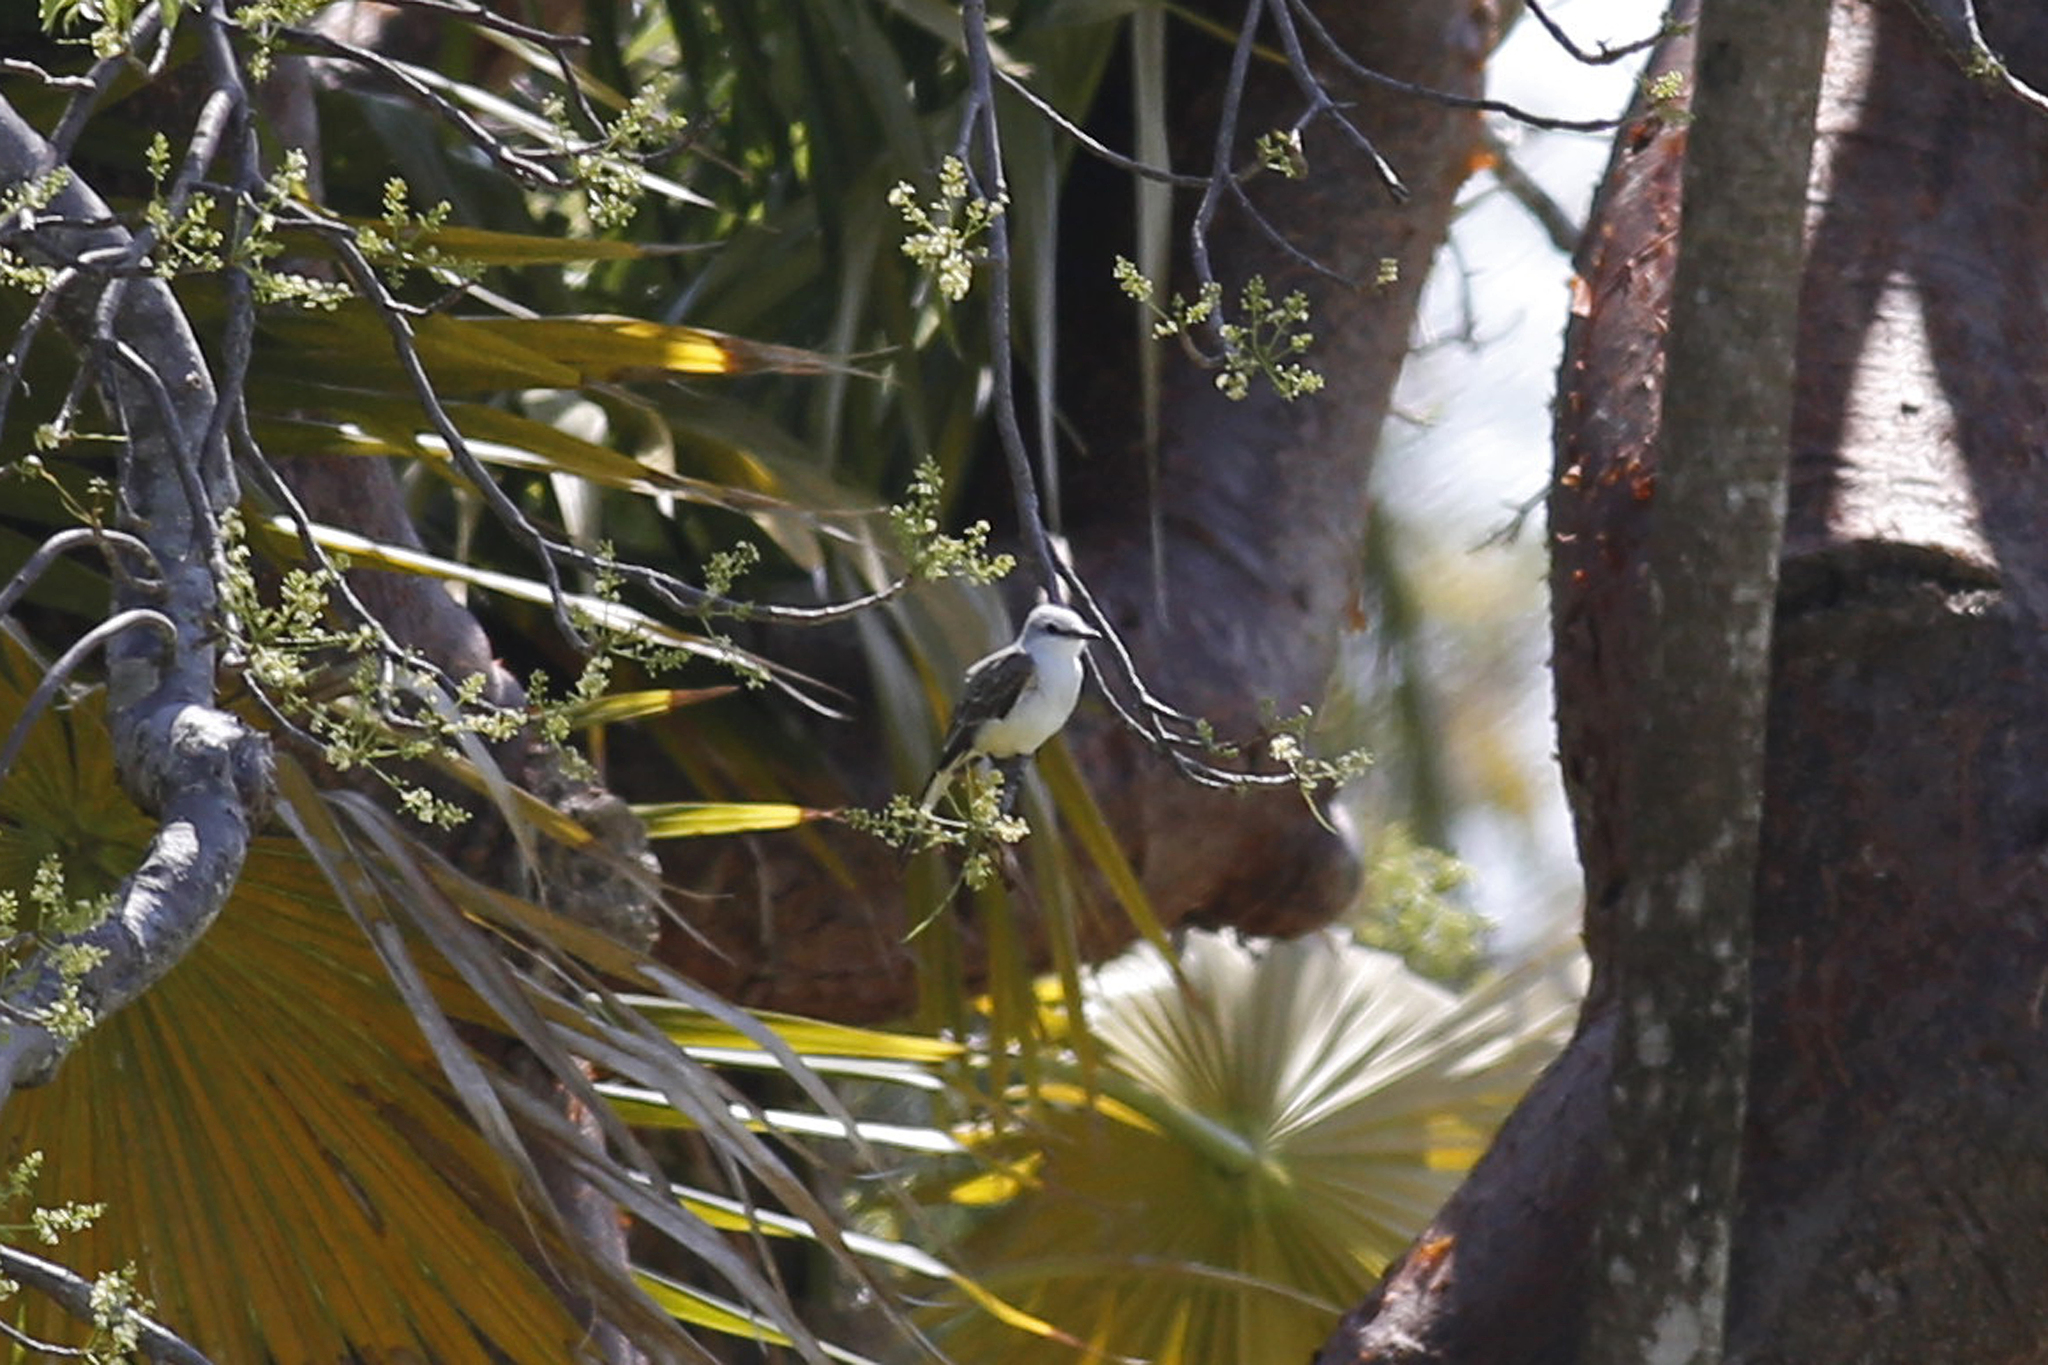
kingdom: Animalia
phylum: Chordata
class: Aves
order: Passeriformes
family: Tyrannidae
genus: Tyrannus
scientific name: Tyrannus forficatus
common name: Scissor-tailed flycatcher
